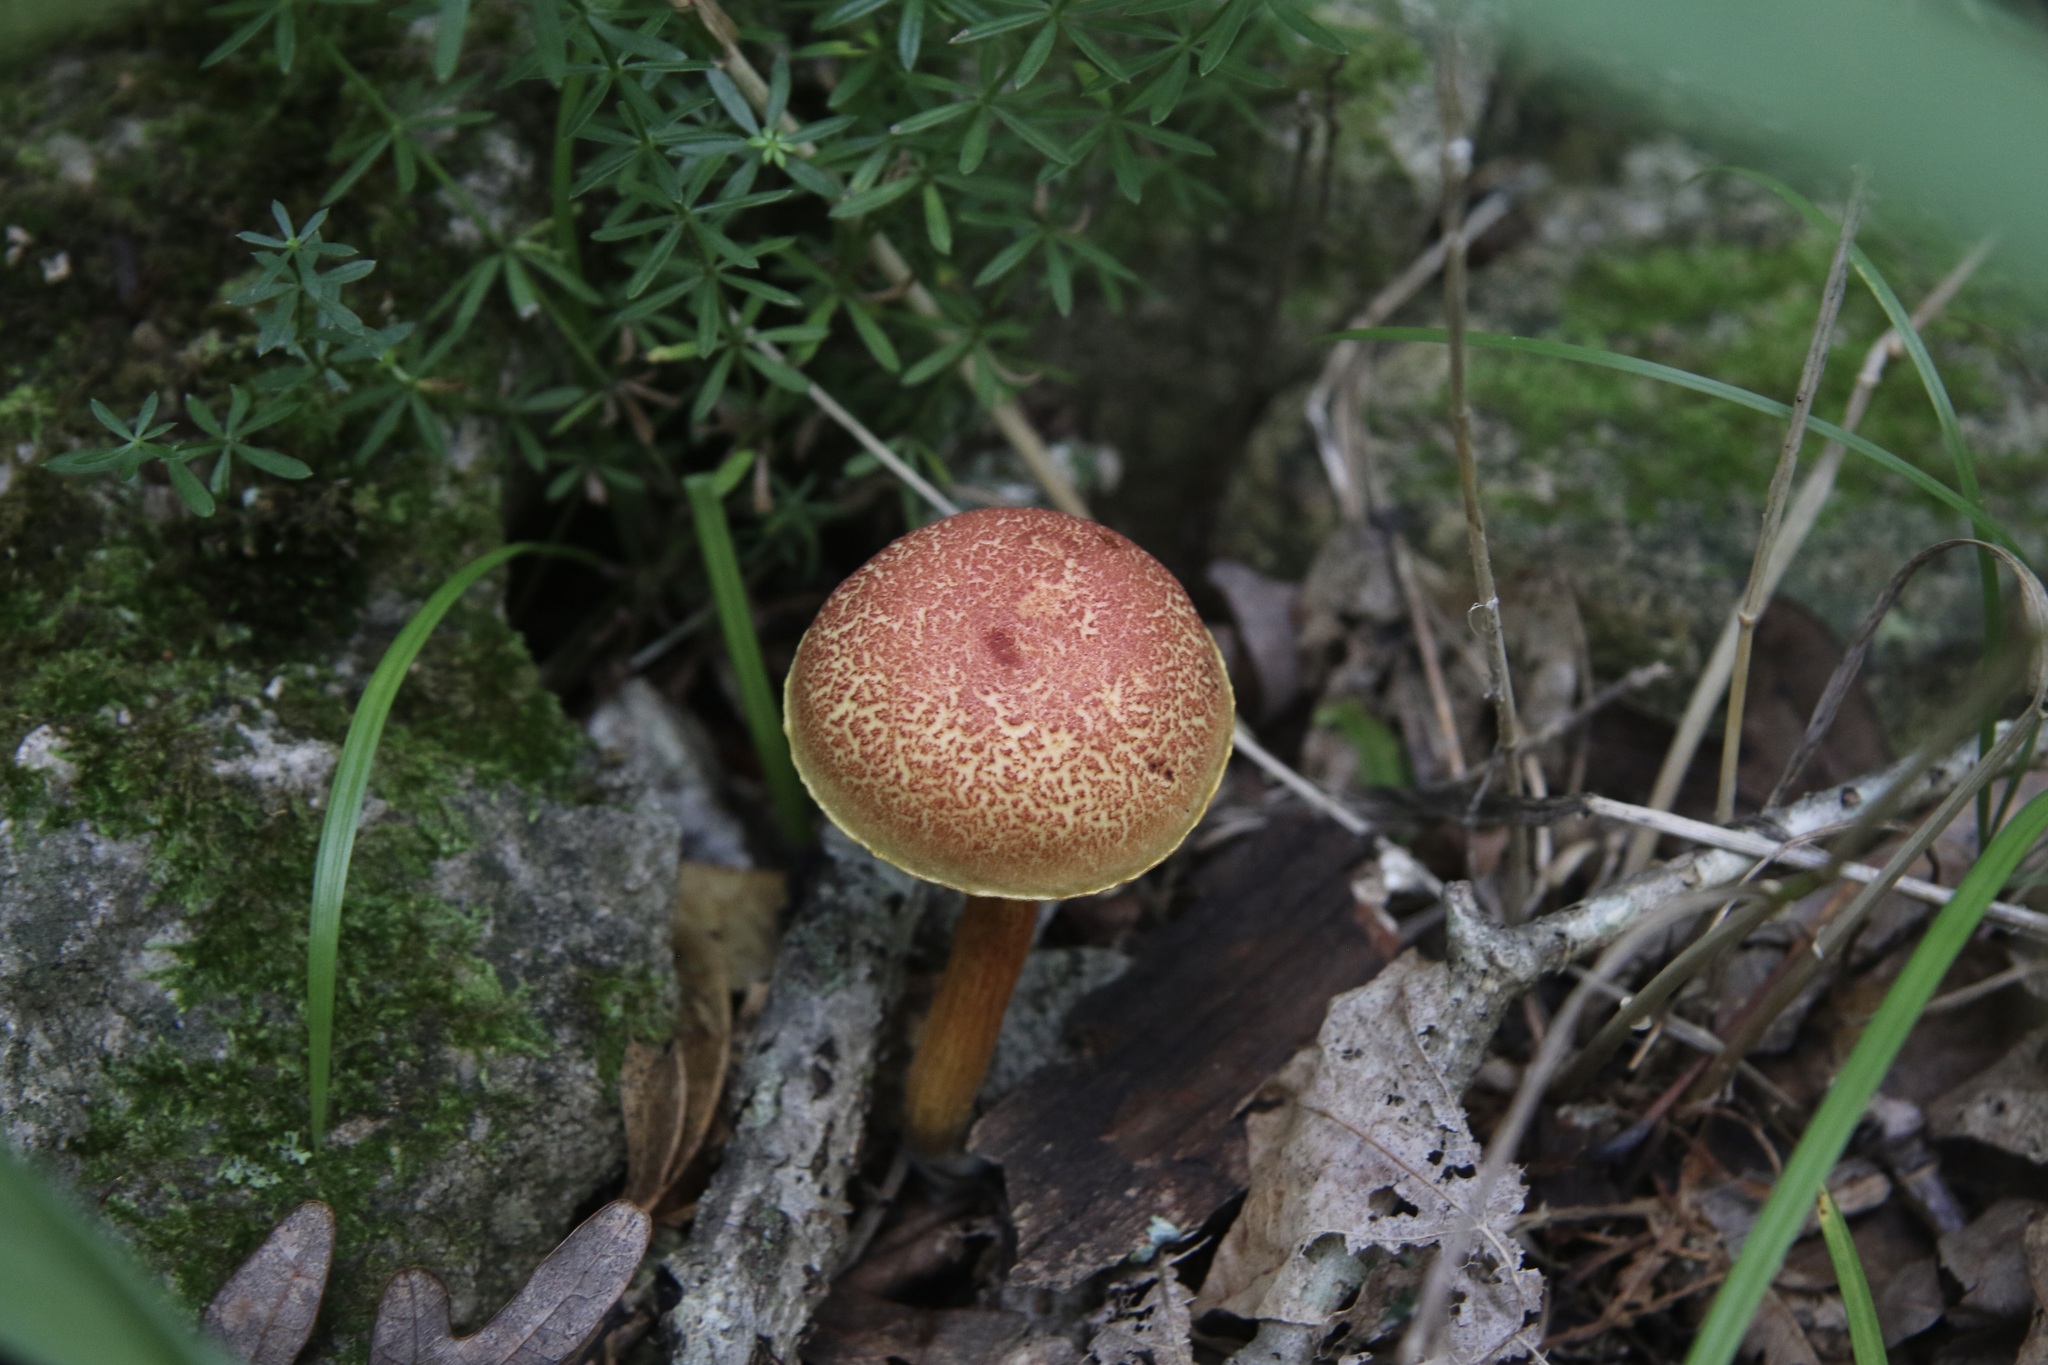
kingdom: Fungi
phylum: Basidiomycota
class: Agaricomycetes
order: Boletales
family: Boletaceae
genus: Hortiboletus
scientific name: Hortiboletus rubellus
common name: Ruby bolete
